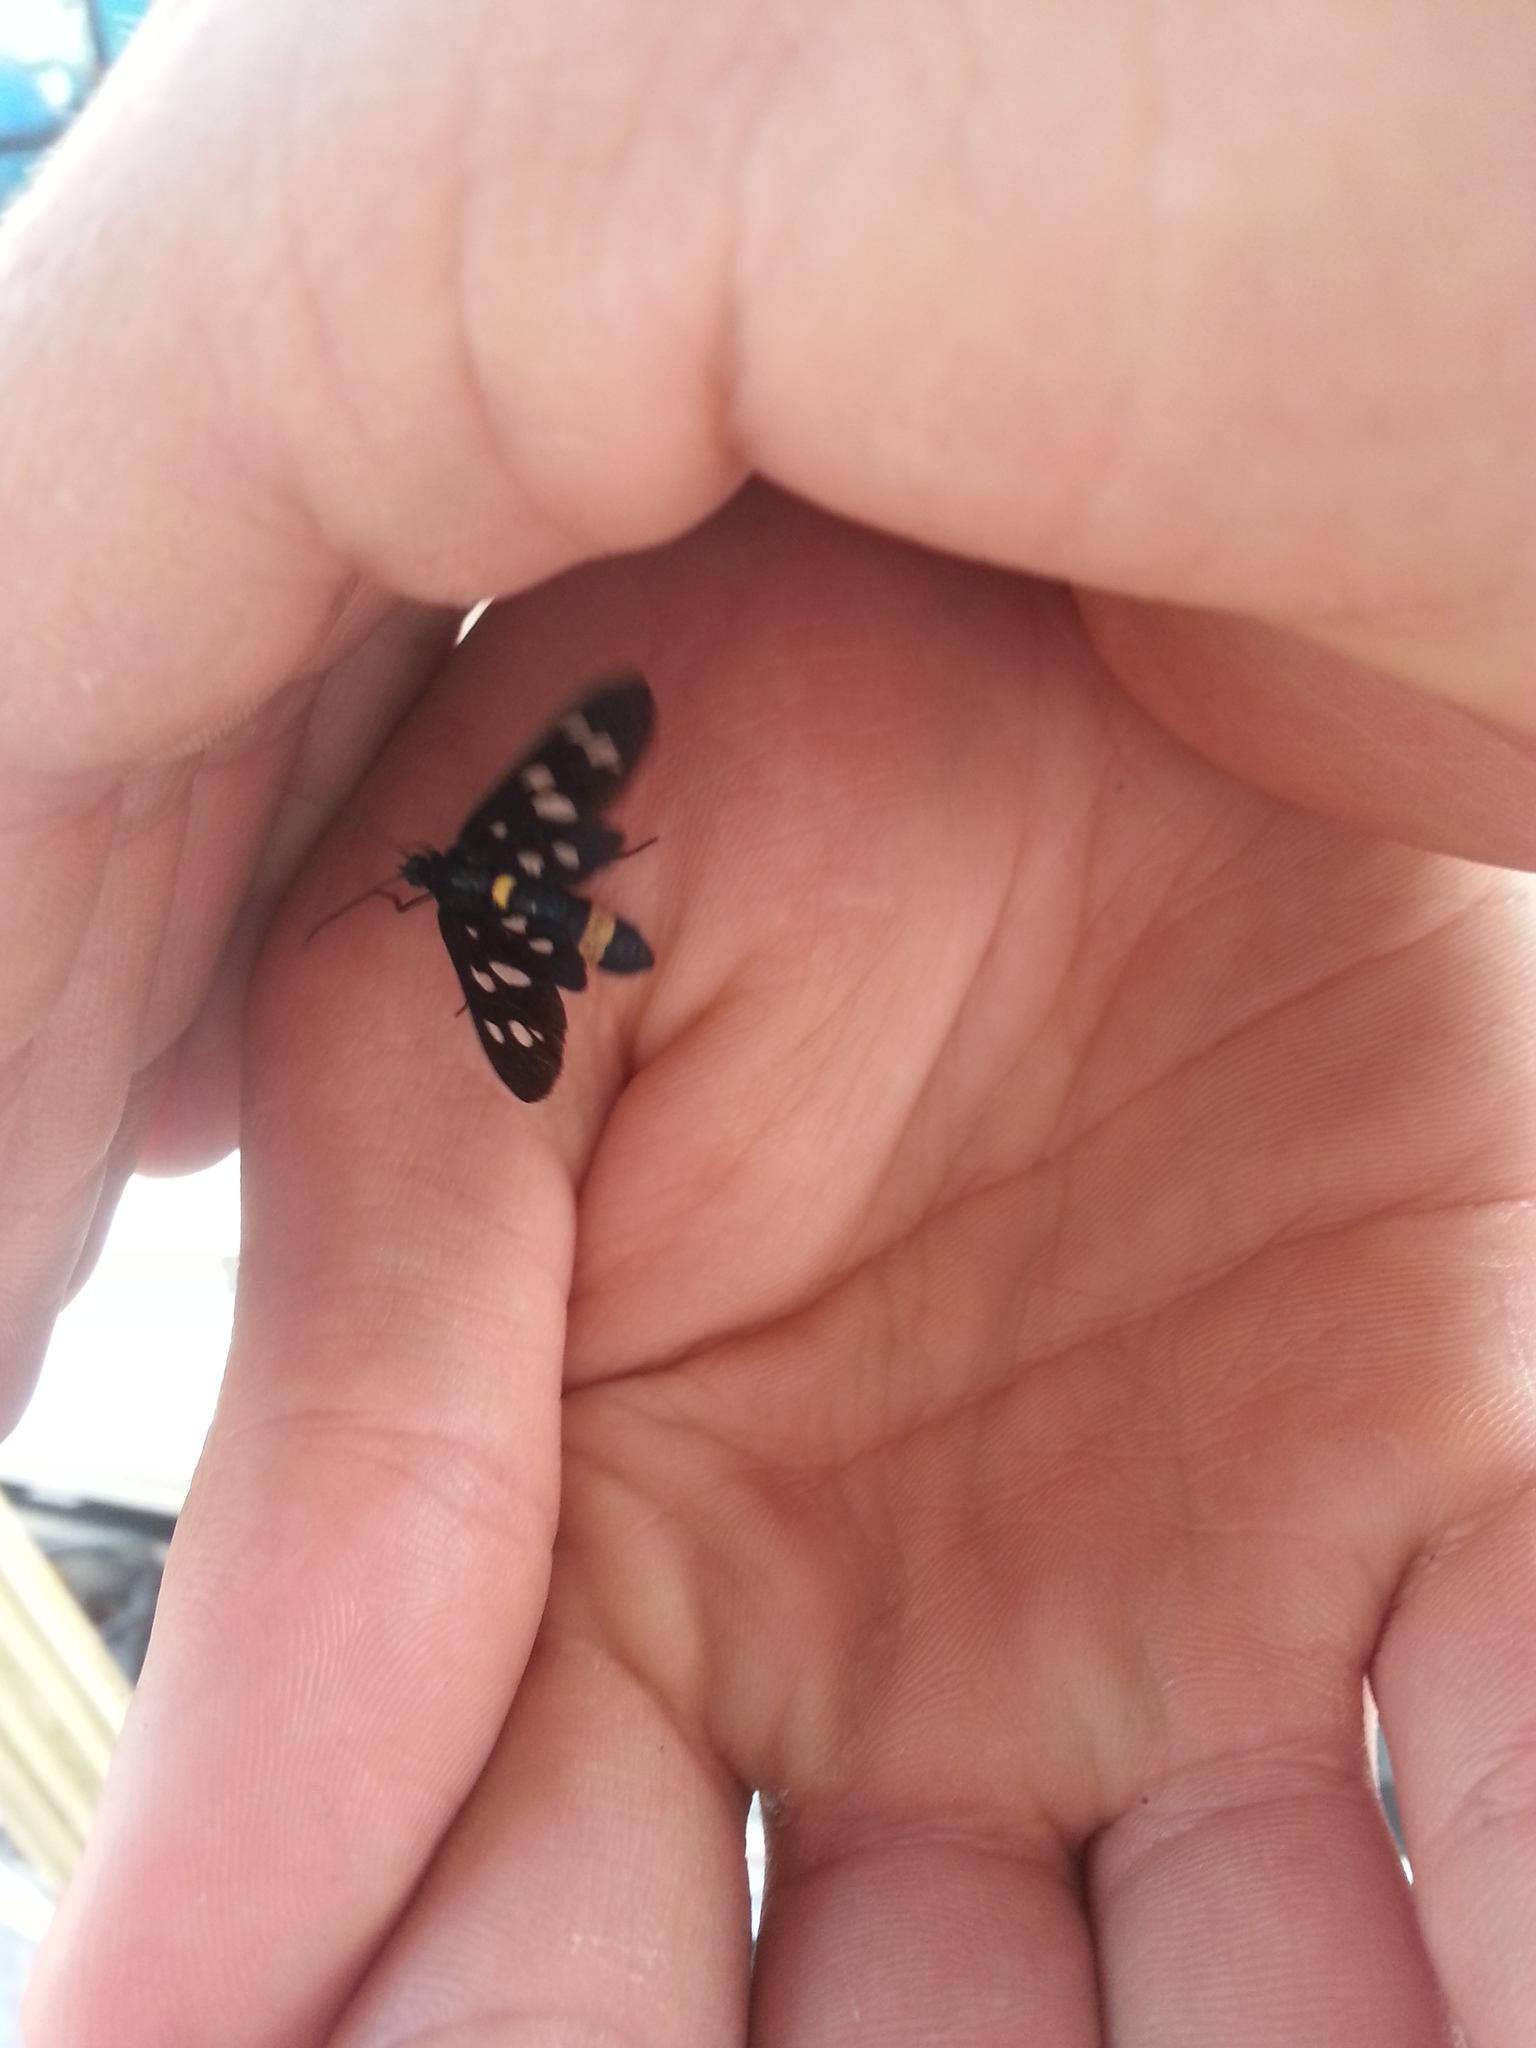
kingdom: Animalia
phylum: Arthropoda
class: Insecta
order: Lepidoptera
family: Erebidae
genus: Amata
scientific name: Amata phegea
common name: Nine-spotted
